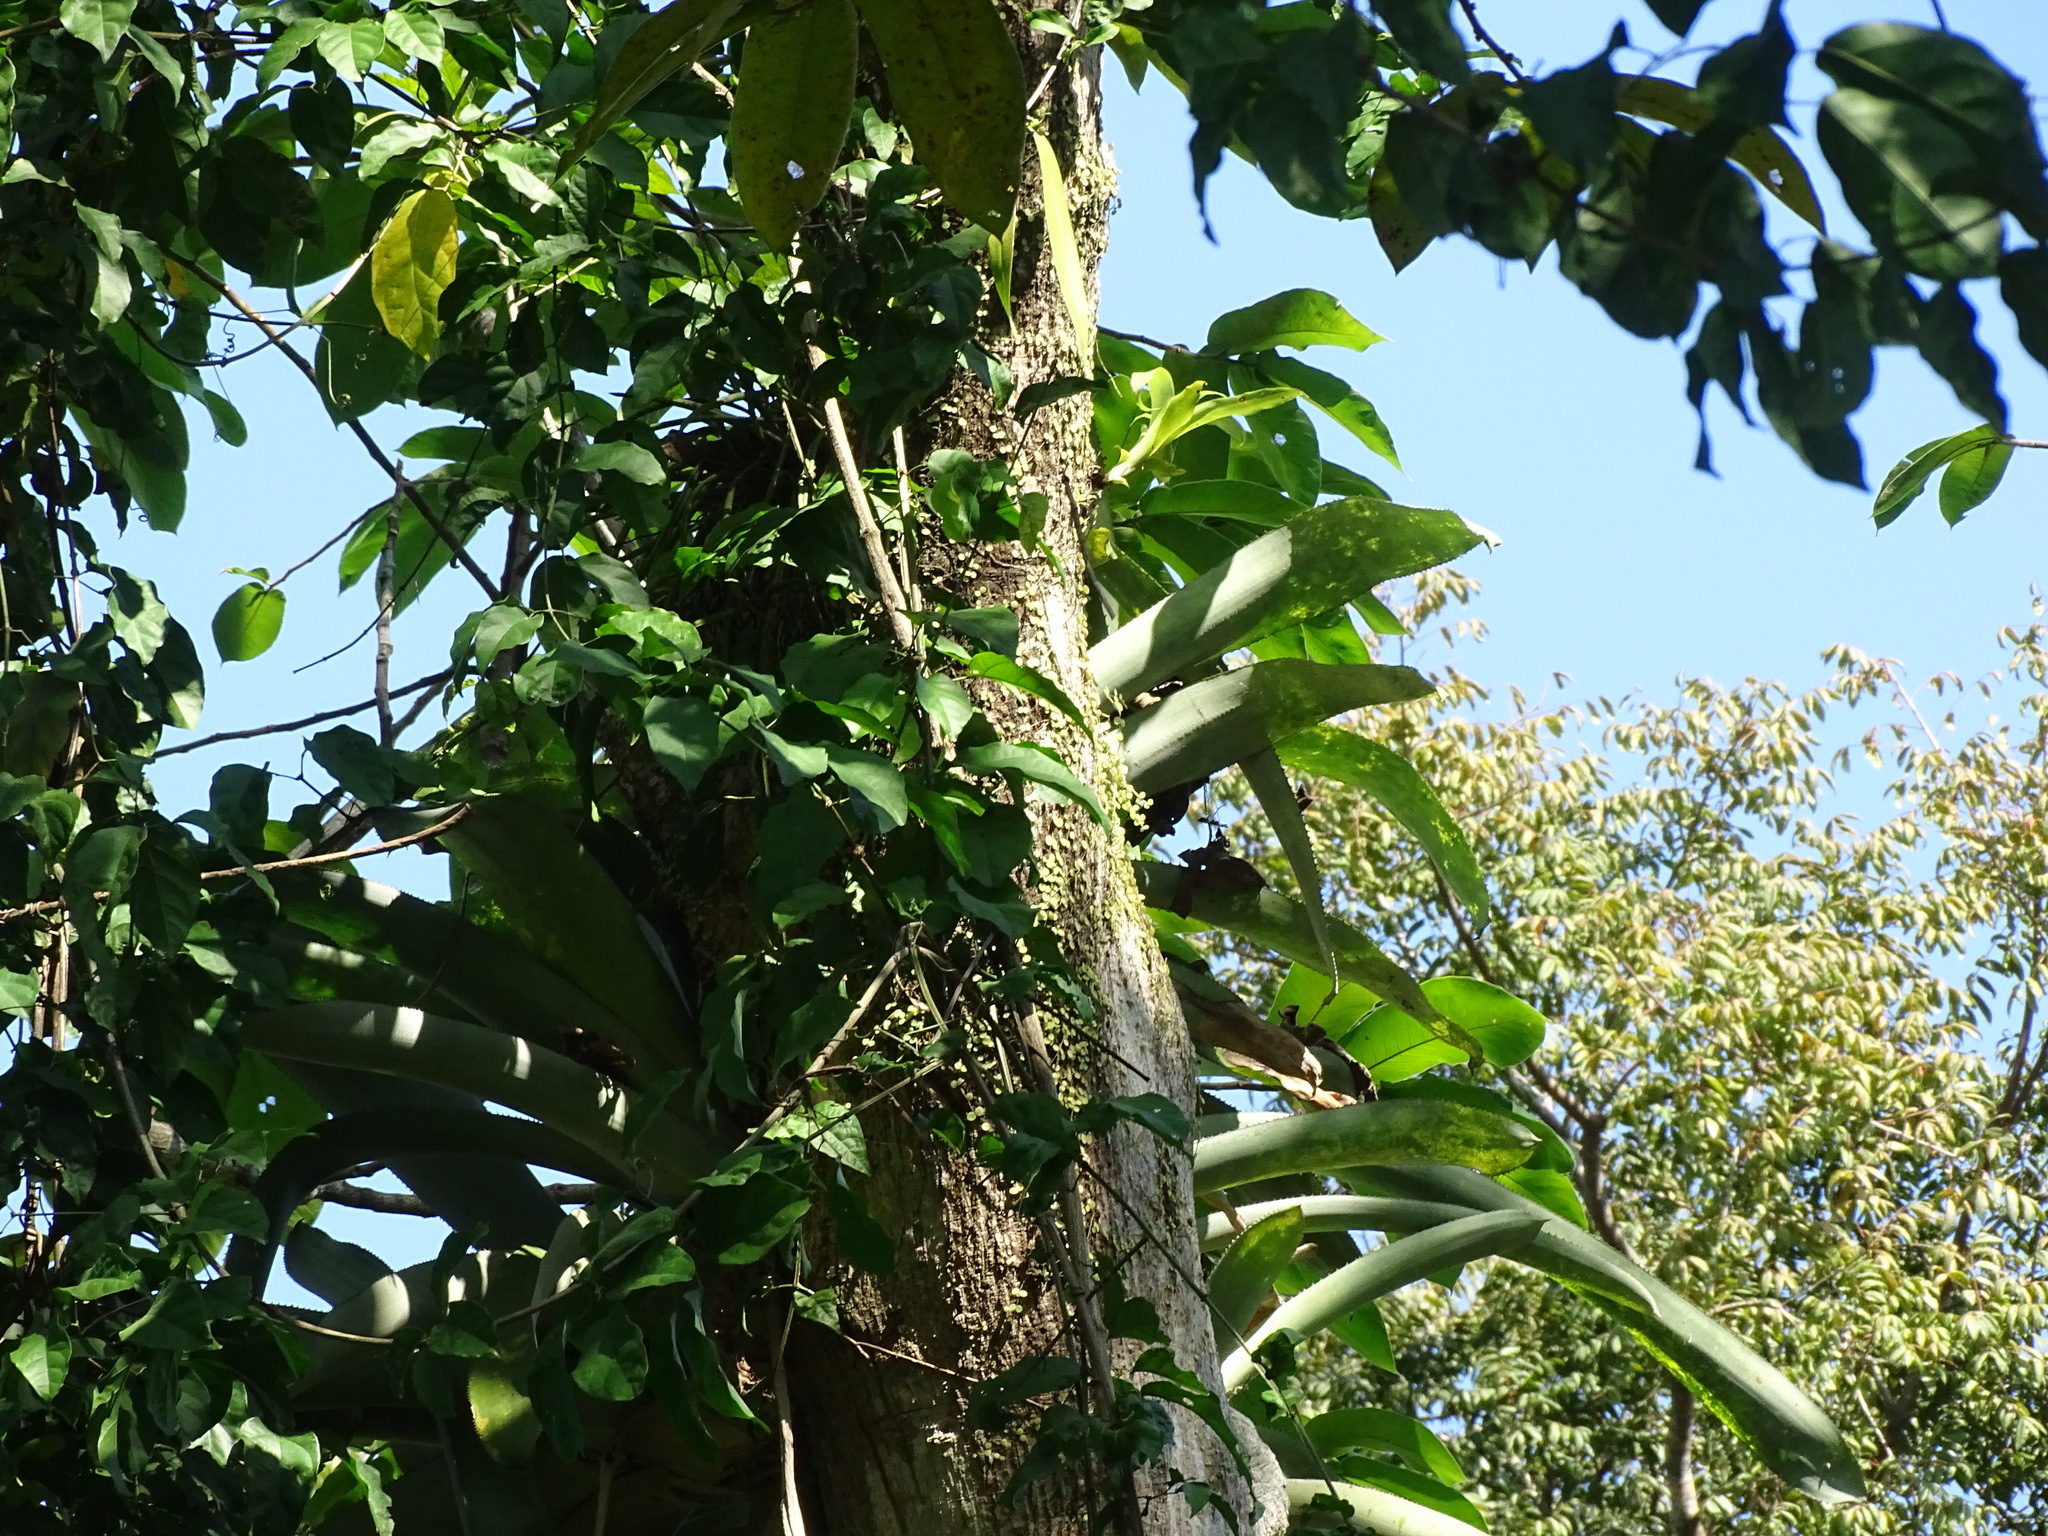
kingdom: Plantae
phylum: Tracheophyta
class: Liliopsida
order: Poales
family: Bromeliaceae
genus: Aechmea
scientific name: Aechmea matudae
